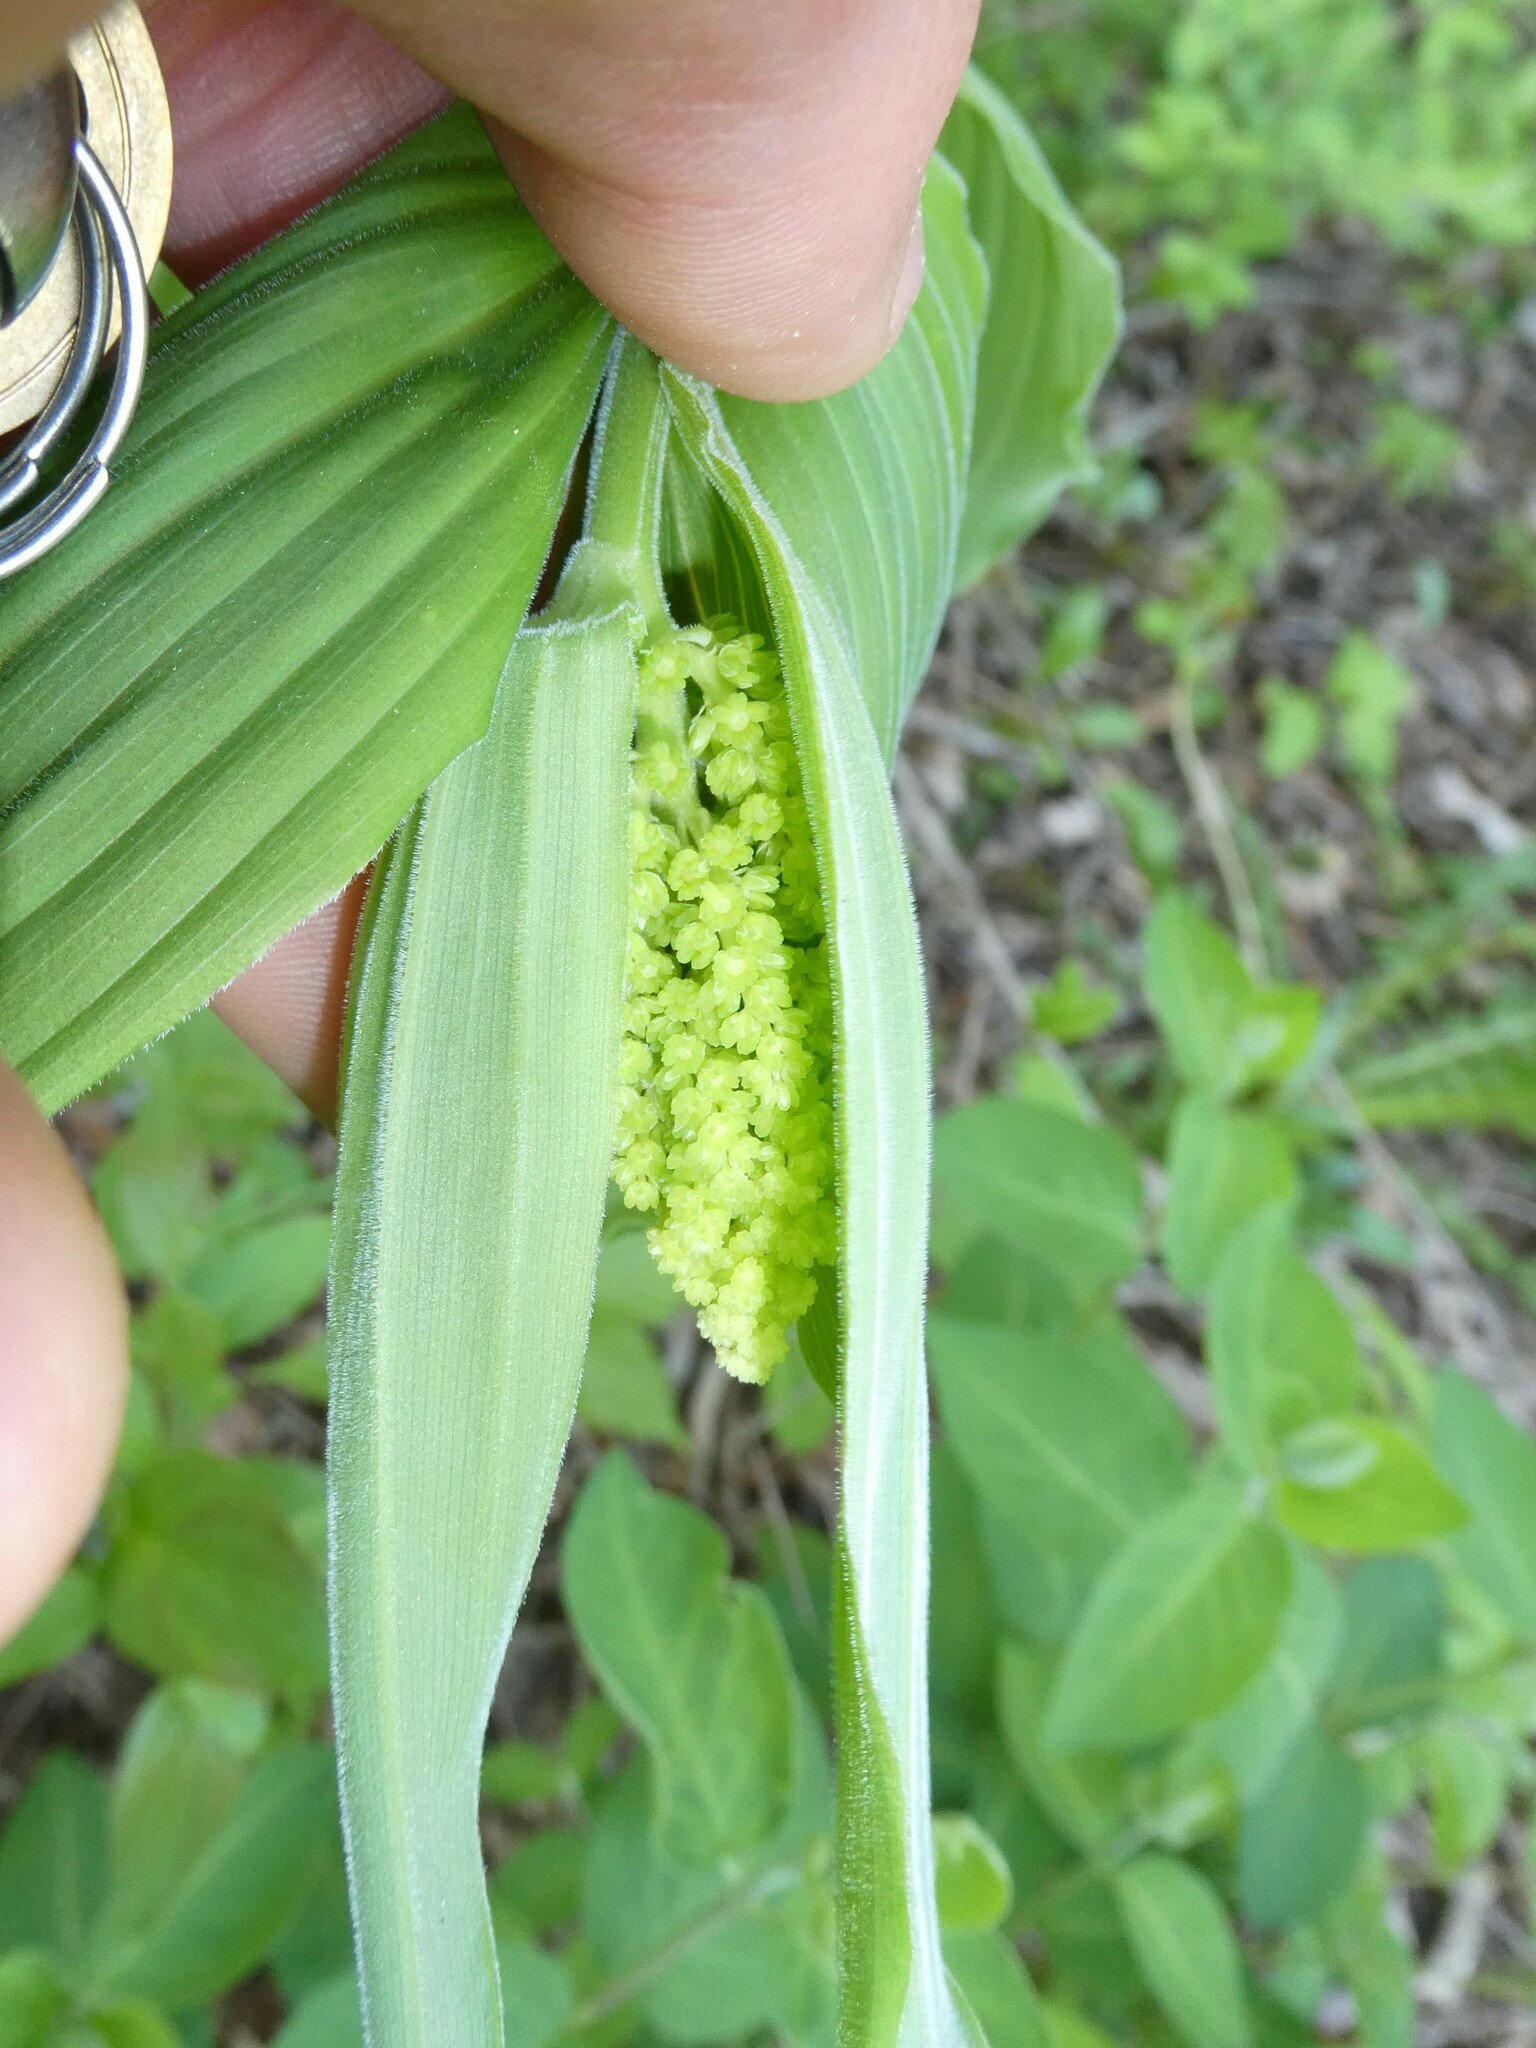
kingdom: Plantae
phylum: Tracheophyta
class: Liliopsida
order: Asparagales
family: Asparagaceae
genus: Maianthemum
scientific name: Maianthemum racemosum
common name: False spikenard
